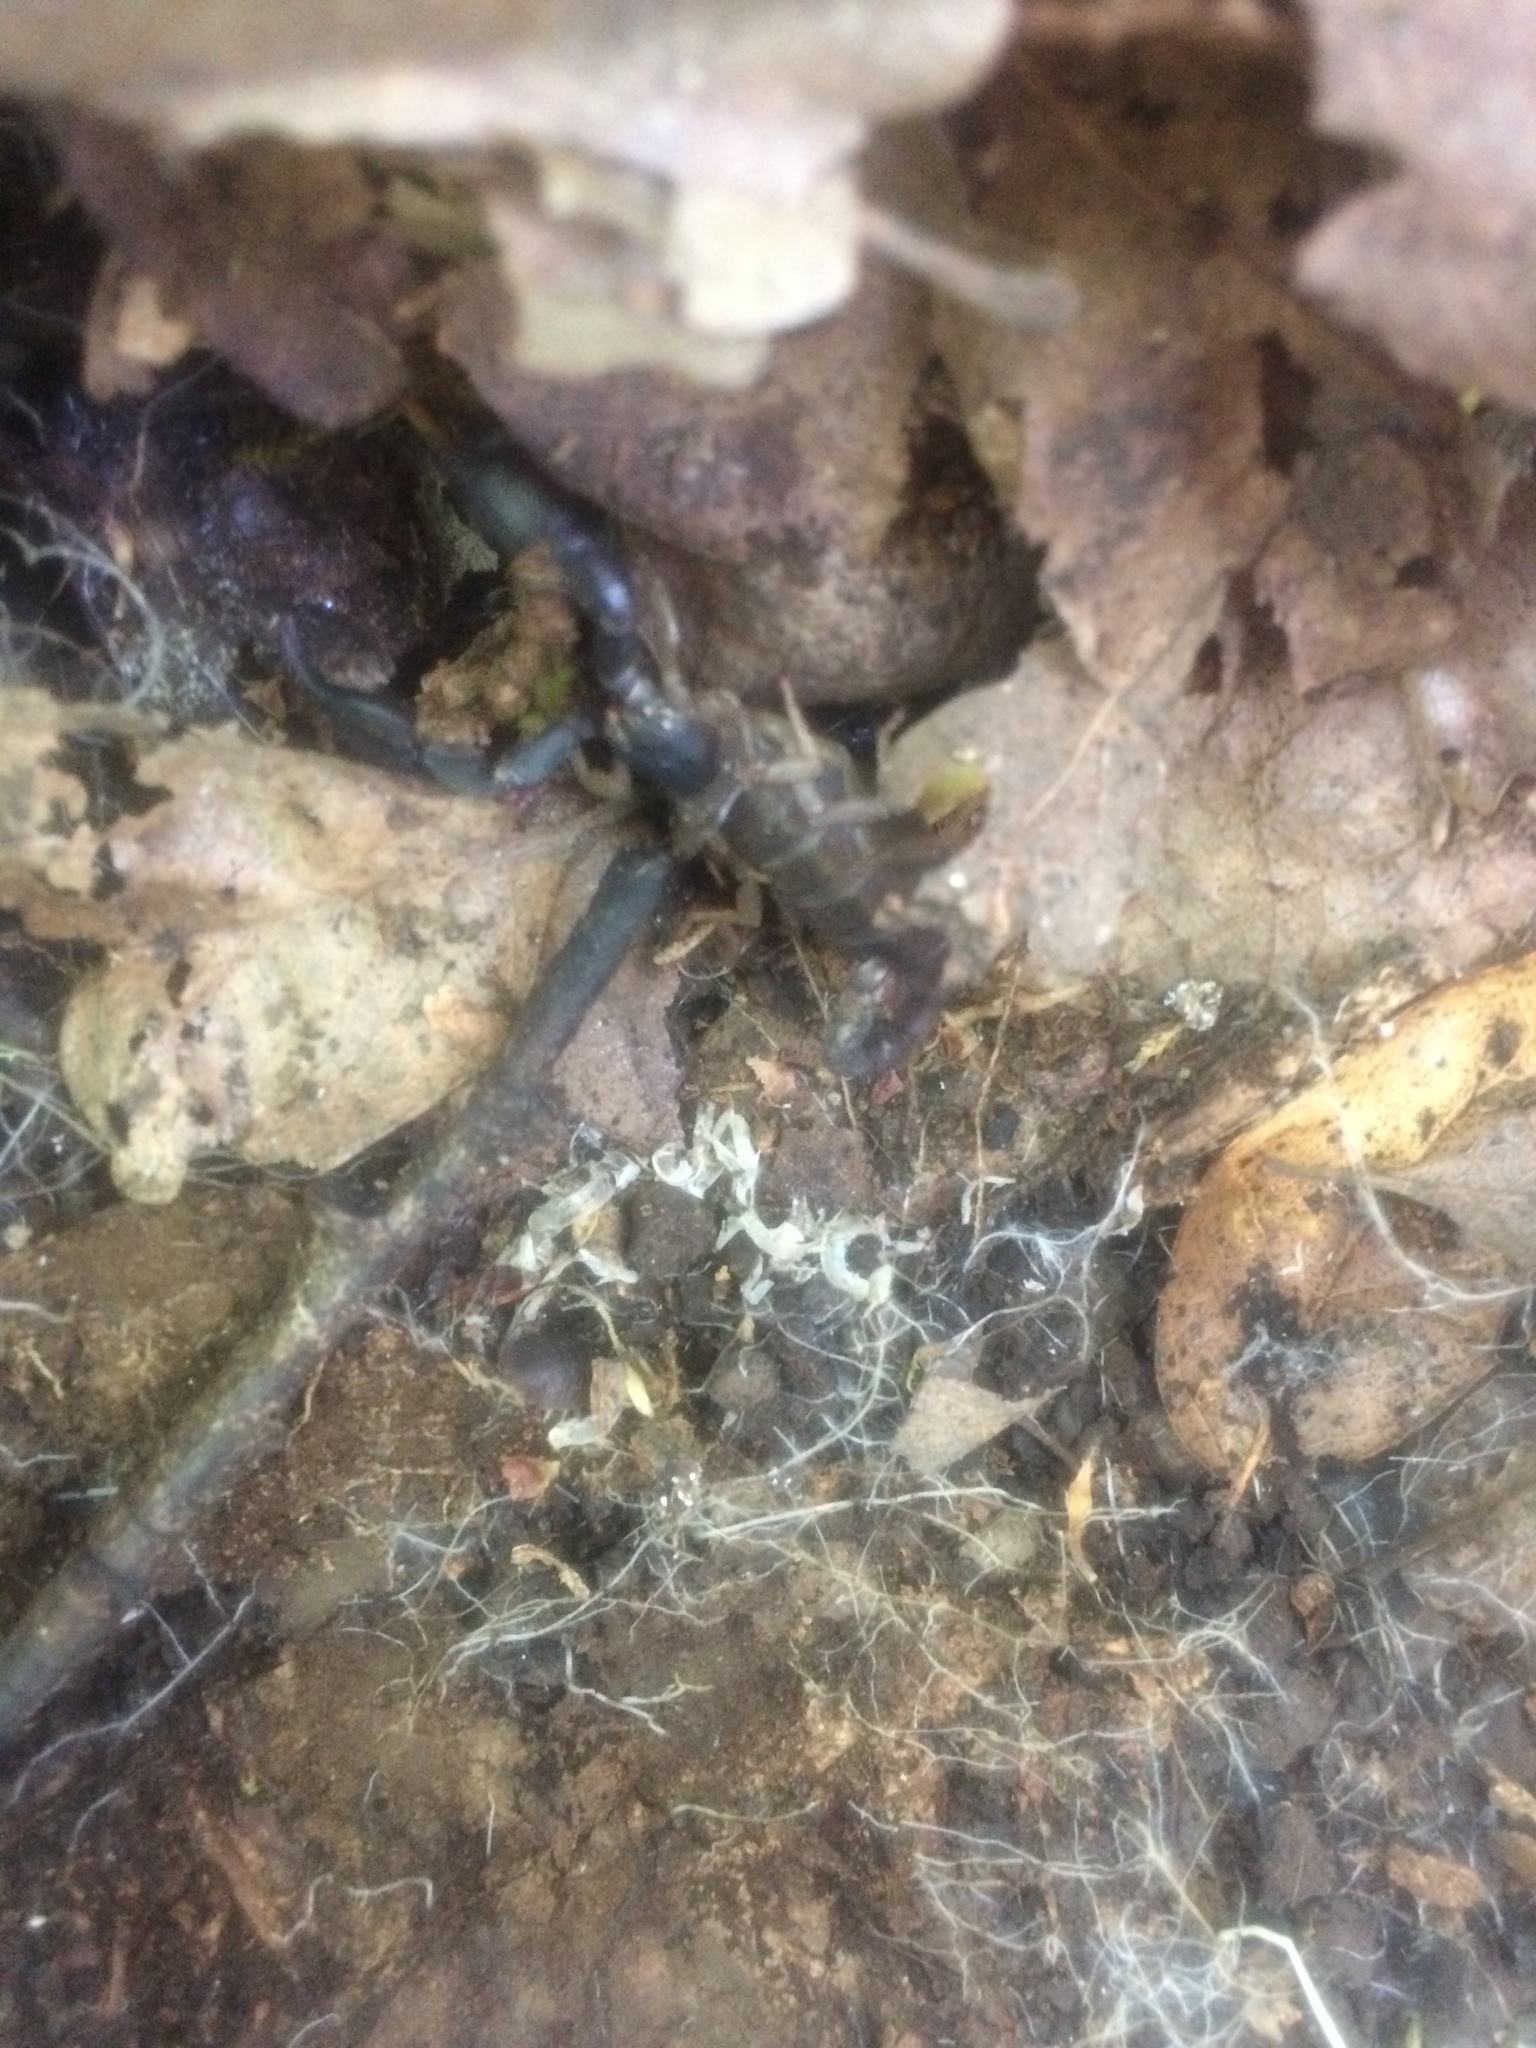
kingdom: Animalia
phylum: Arthropoda
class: Arachnida
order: Scorpiones
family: Chactidae
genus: Uroctonus
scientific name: Uroctonus mordax
